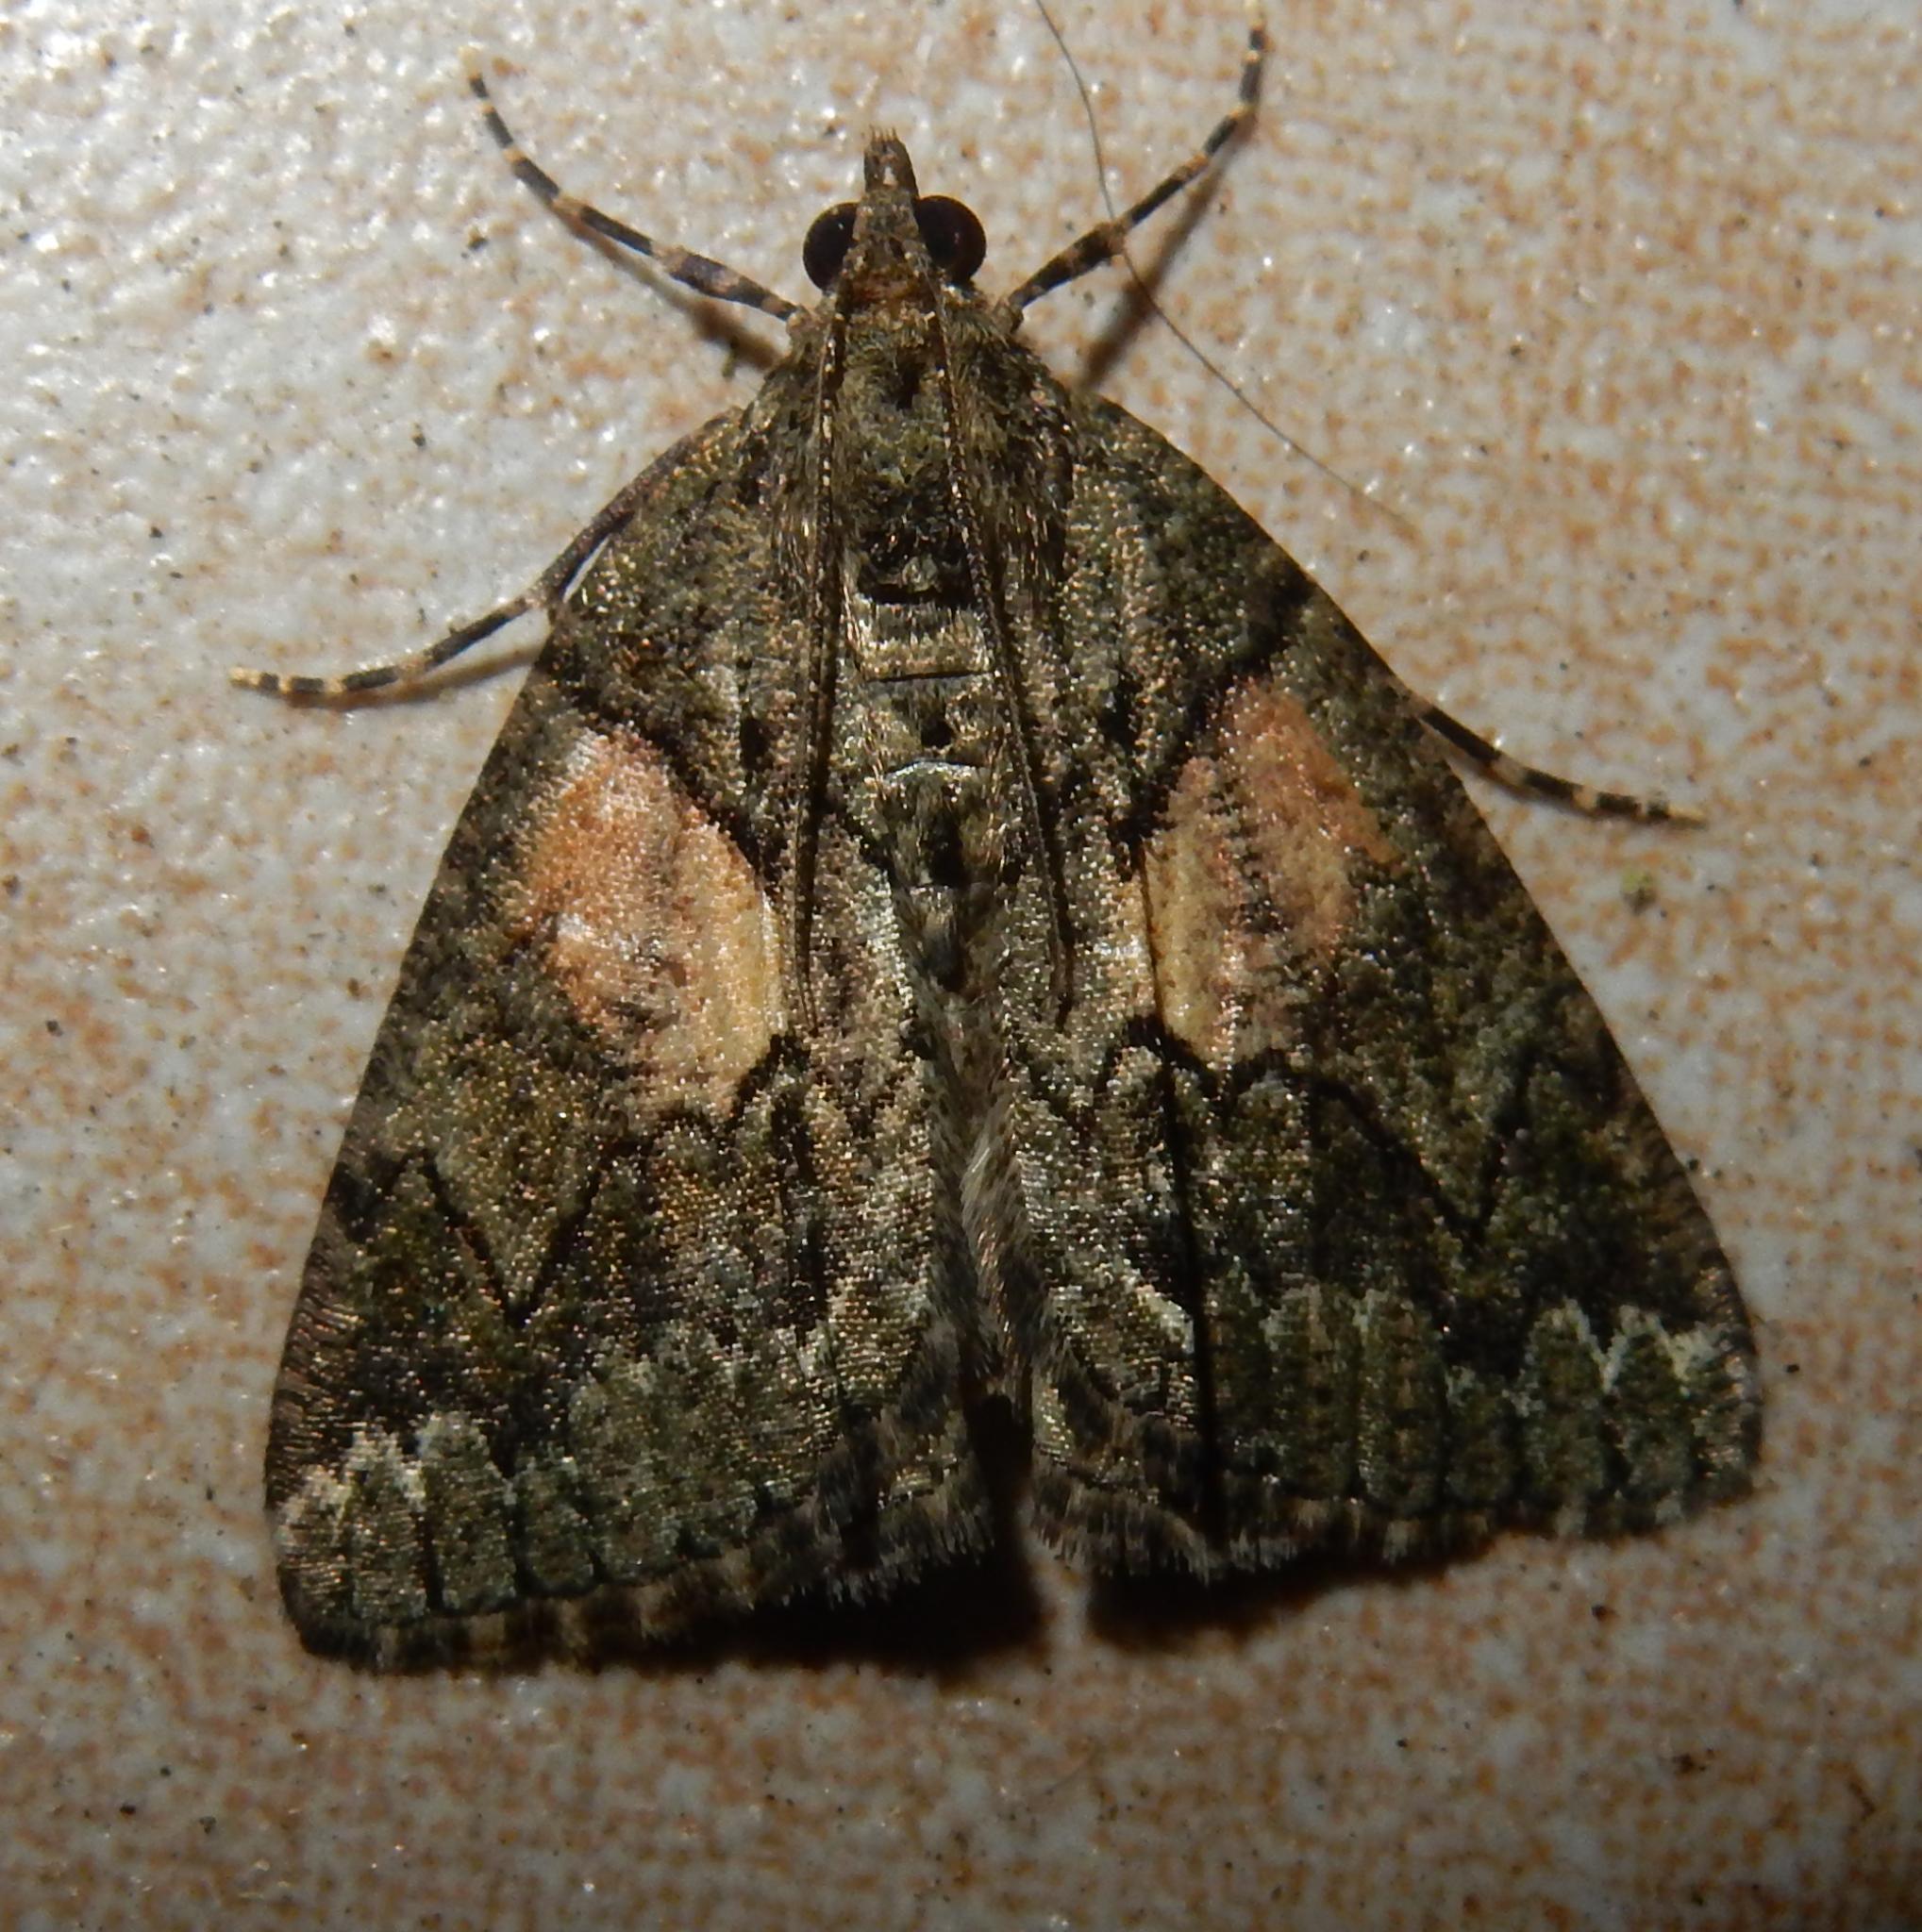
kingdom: Animalia
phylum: Arthropoda
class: Insecta
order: Lepidoptera
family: Geometridae
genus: Xylopteryx
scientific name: Xylopteryx arcuata
